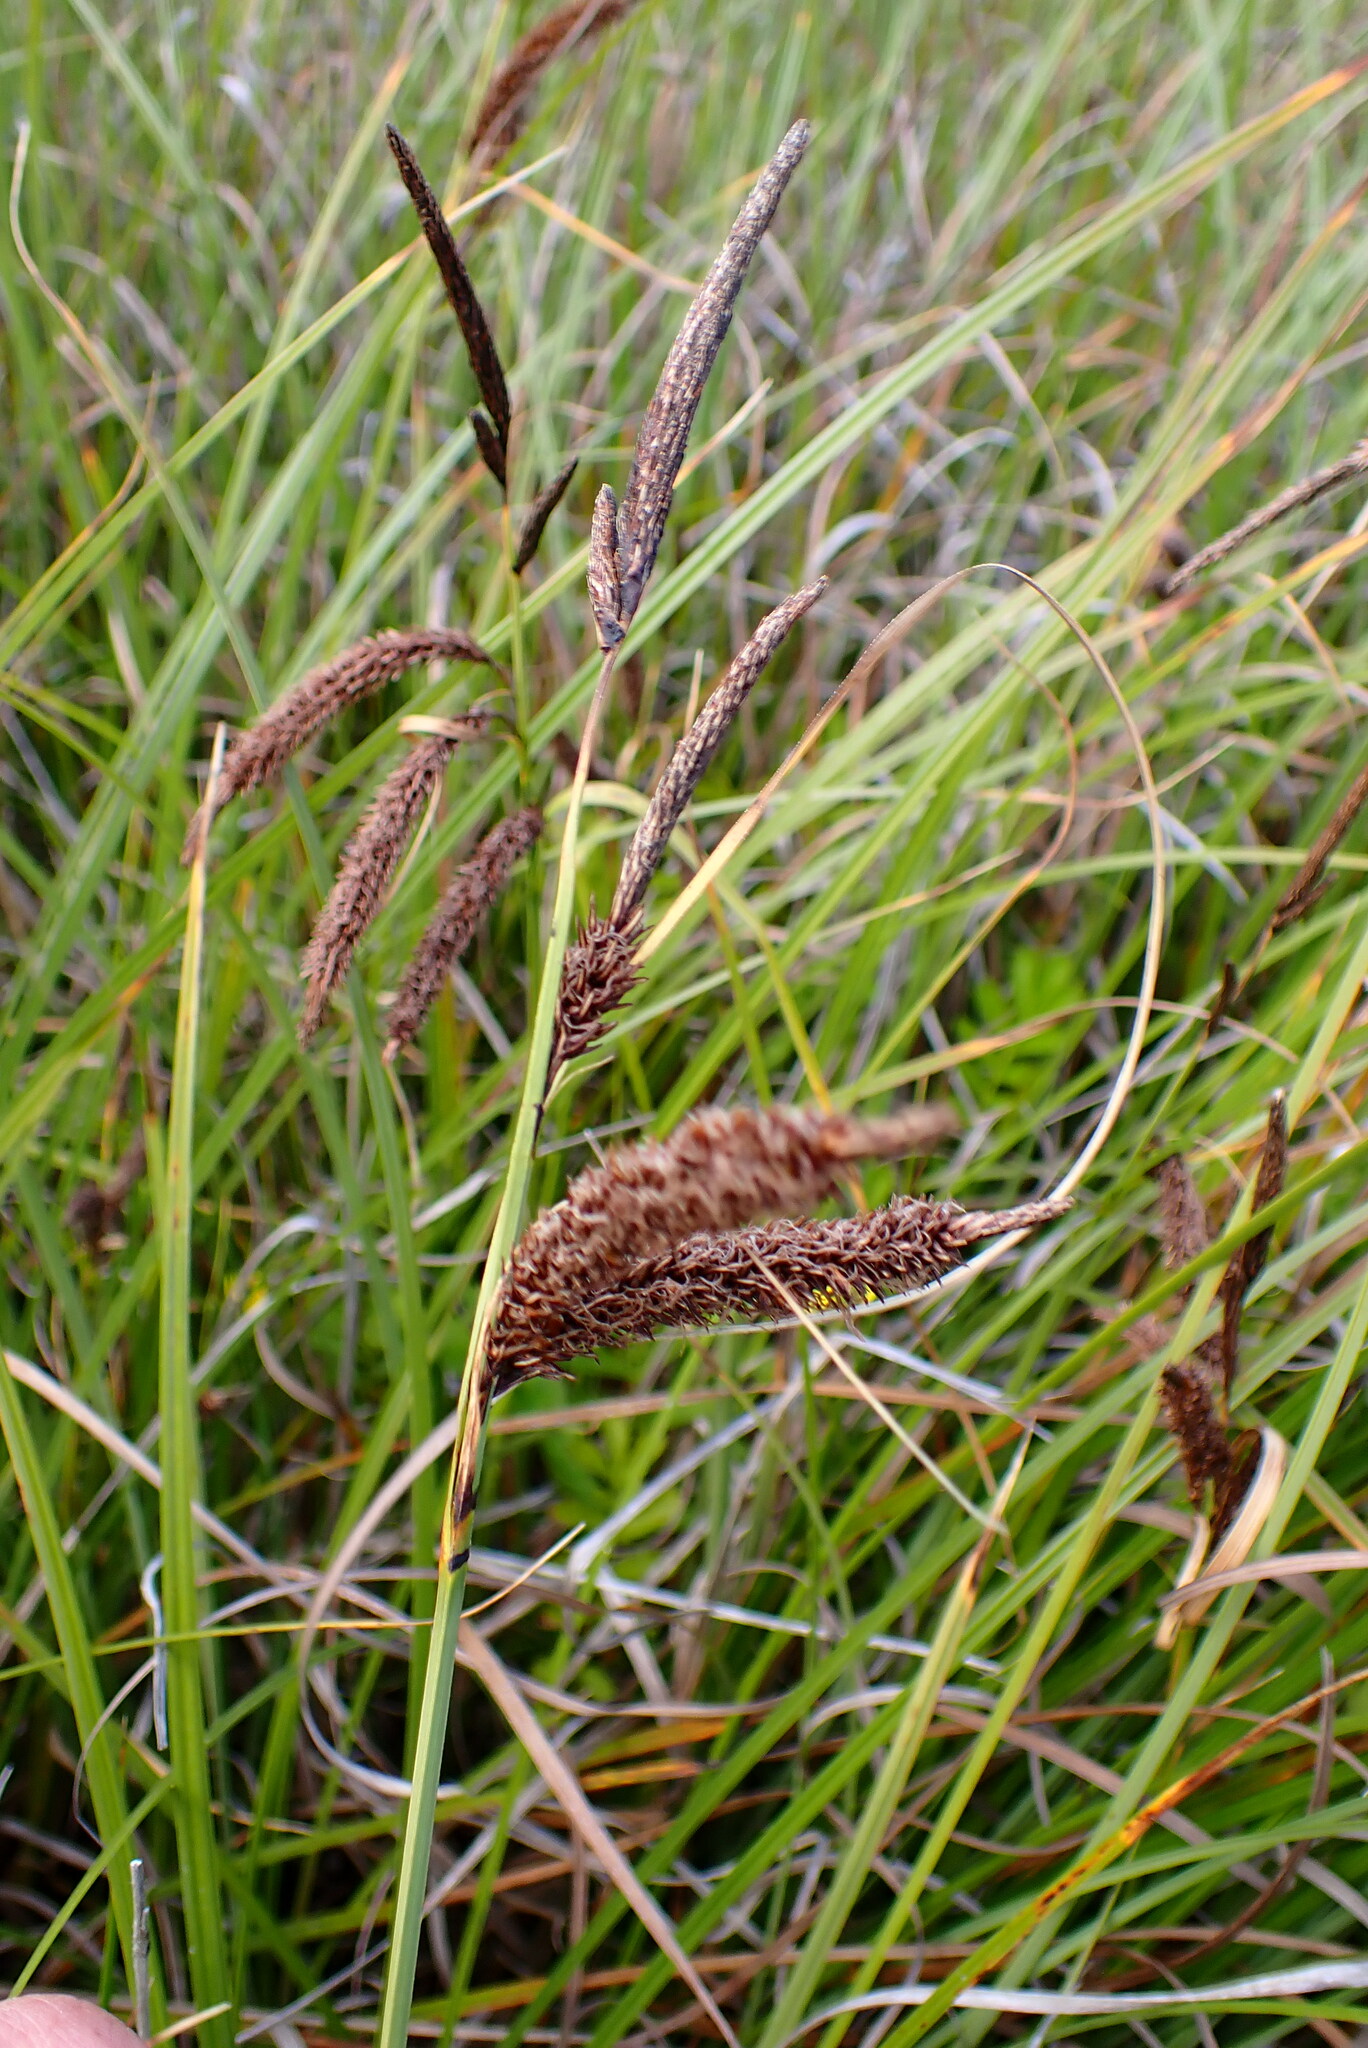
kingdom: Plantae
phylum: Tracheophyta
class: Liliopsida
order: Poales
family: Cyperaceae
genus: Carex
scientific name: Carex obnupta
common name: Slough sedge
